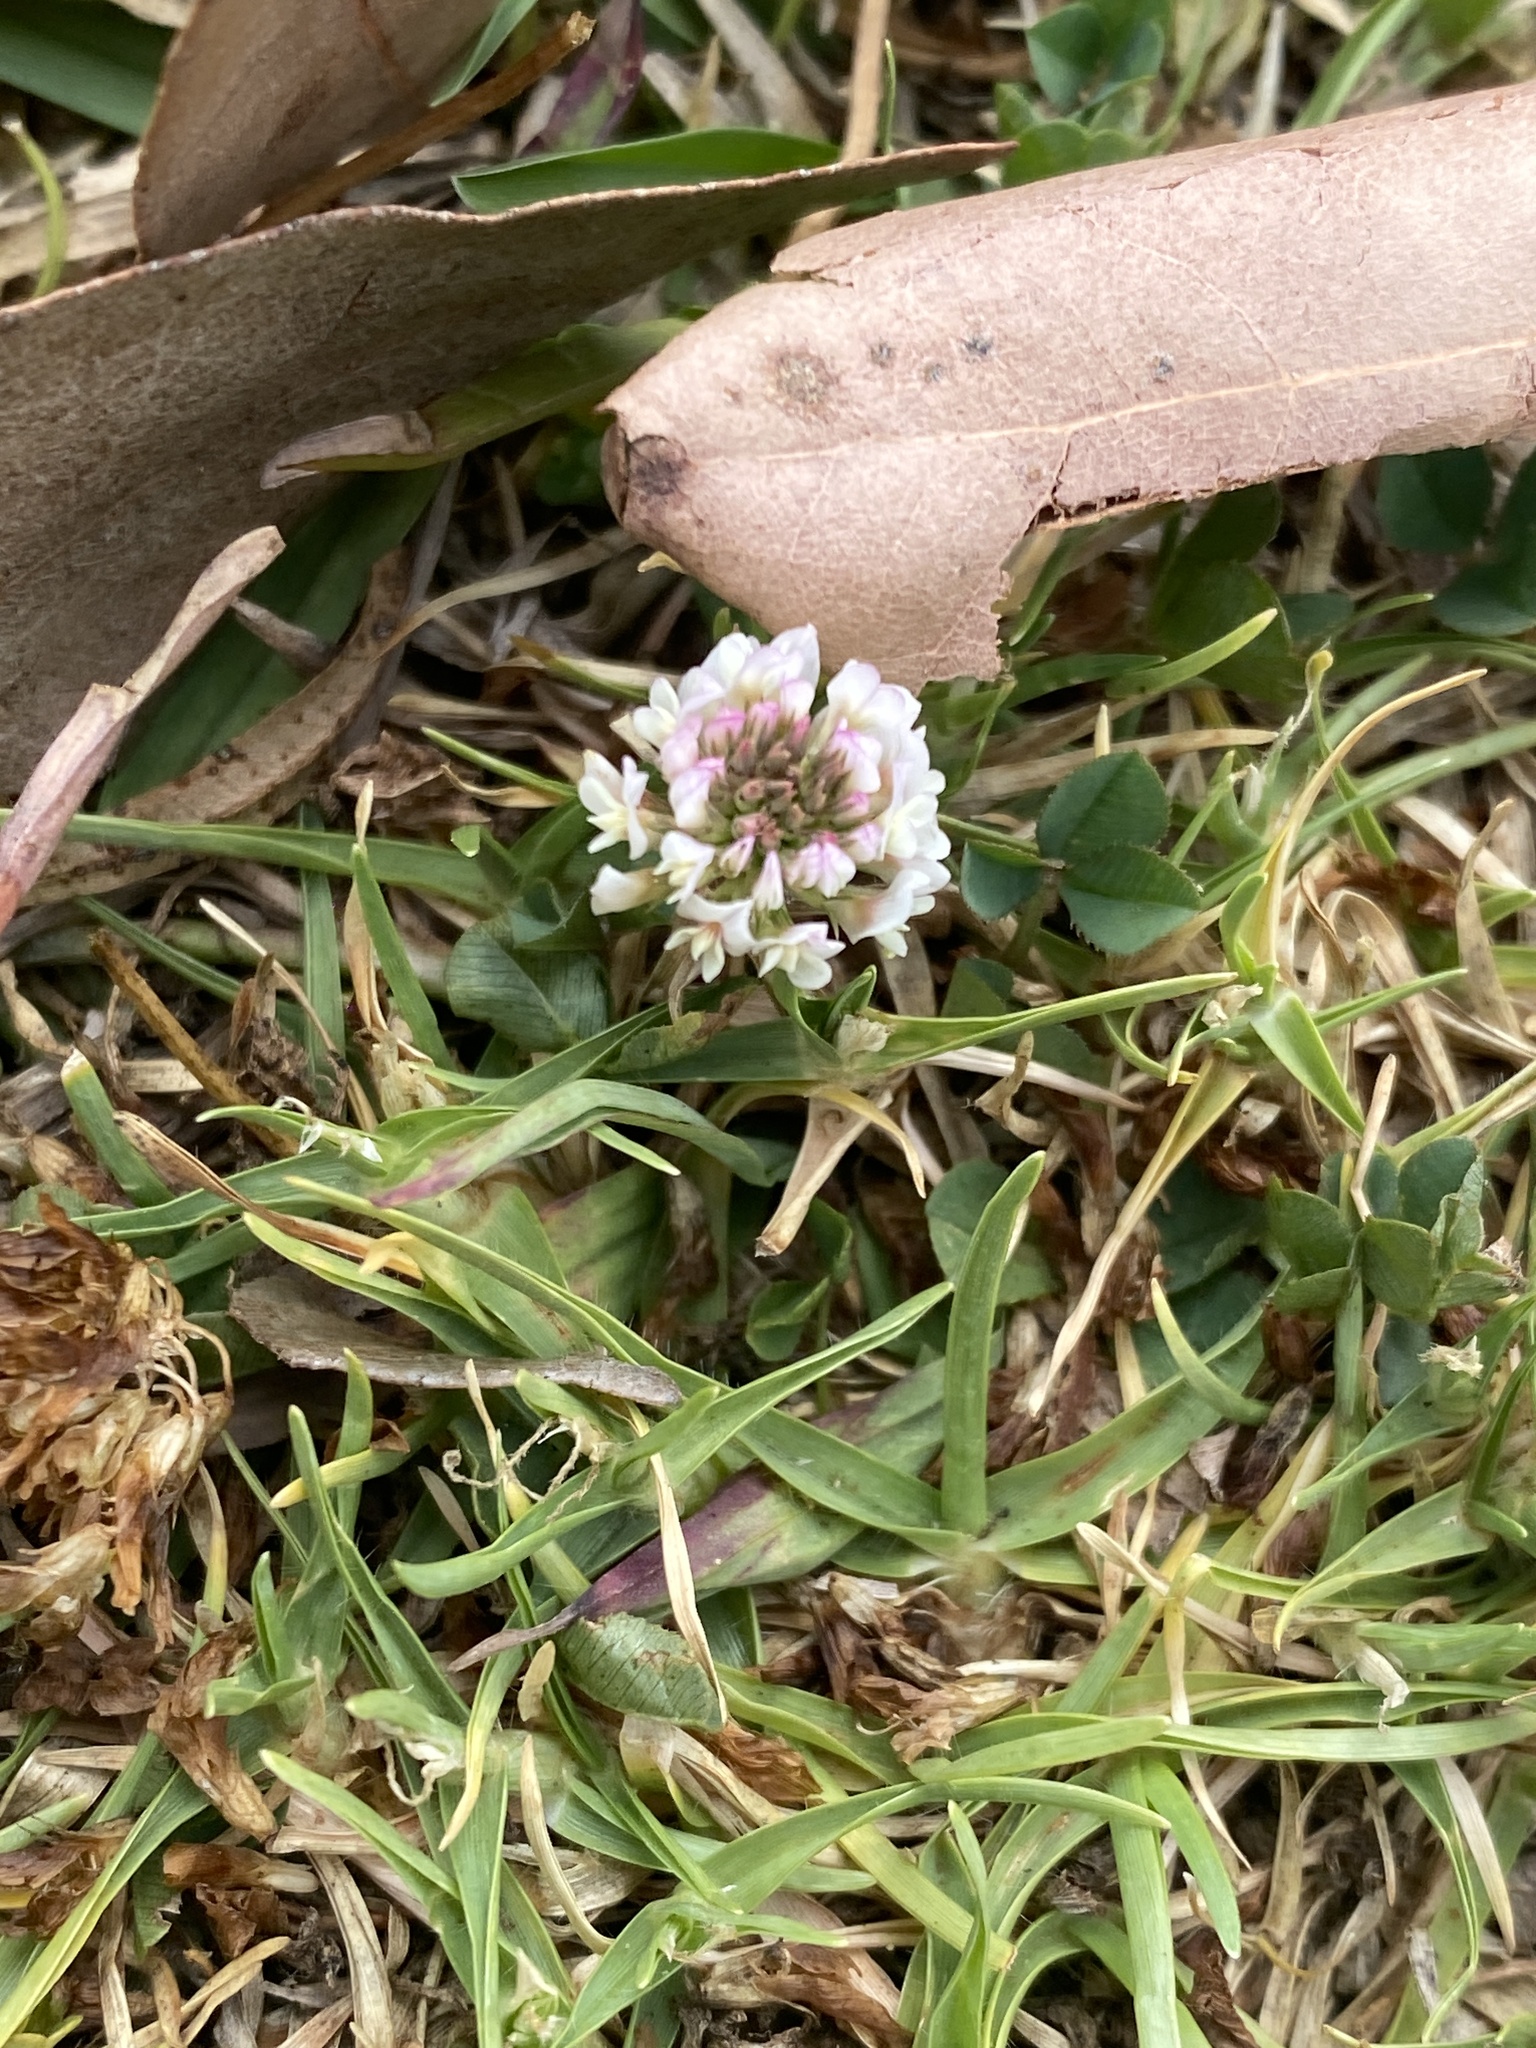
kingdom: Plantae
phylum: Tracheophyta
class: Magnoliopsida
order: Fabales
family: Fabaceae
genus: Trifolium
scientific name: Trifolium repens
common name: White clover
